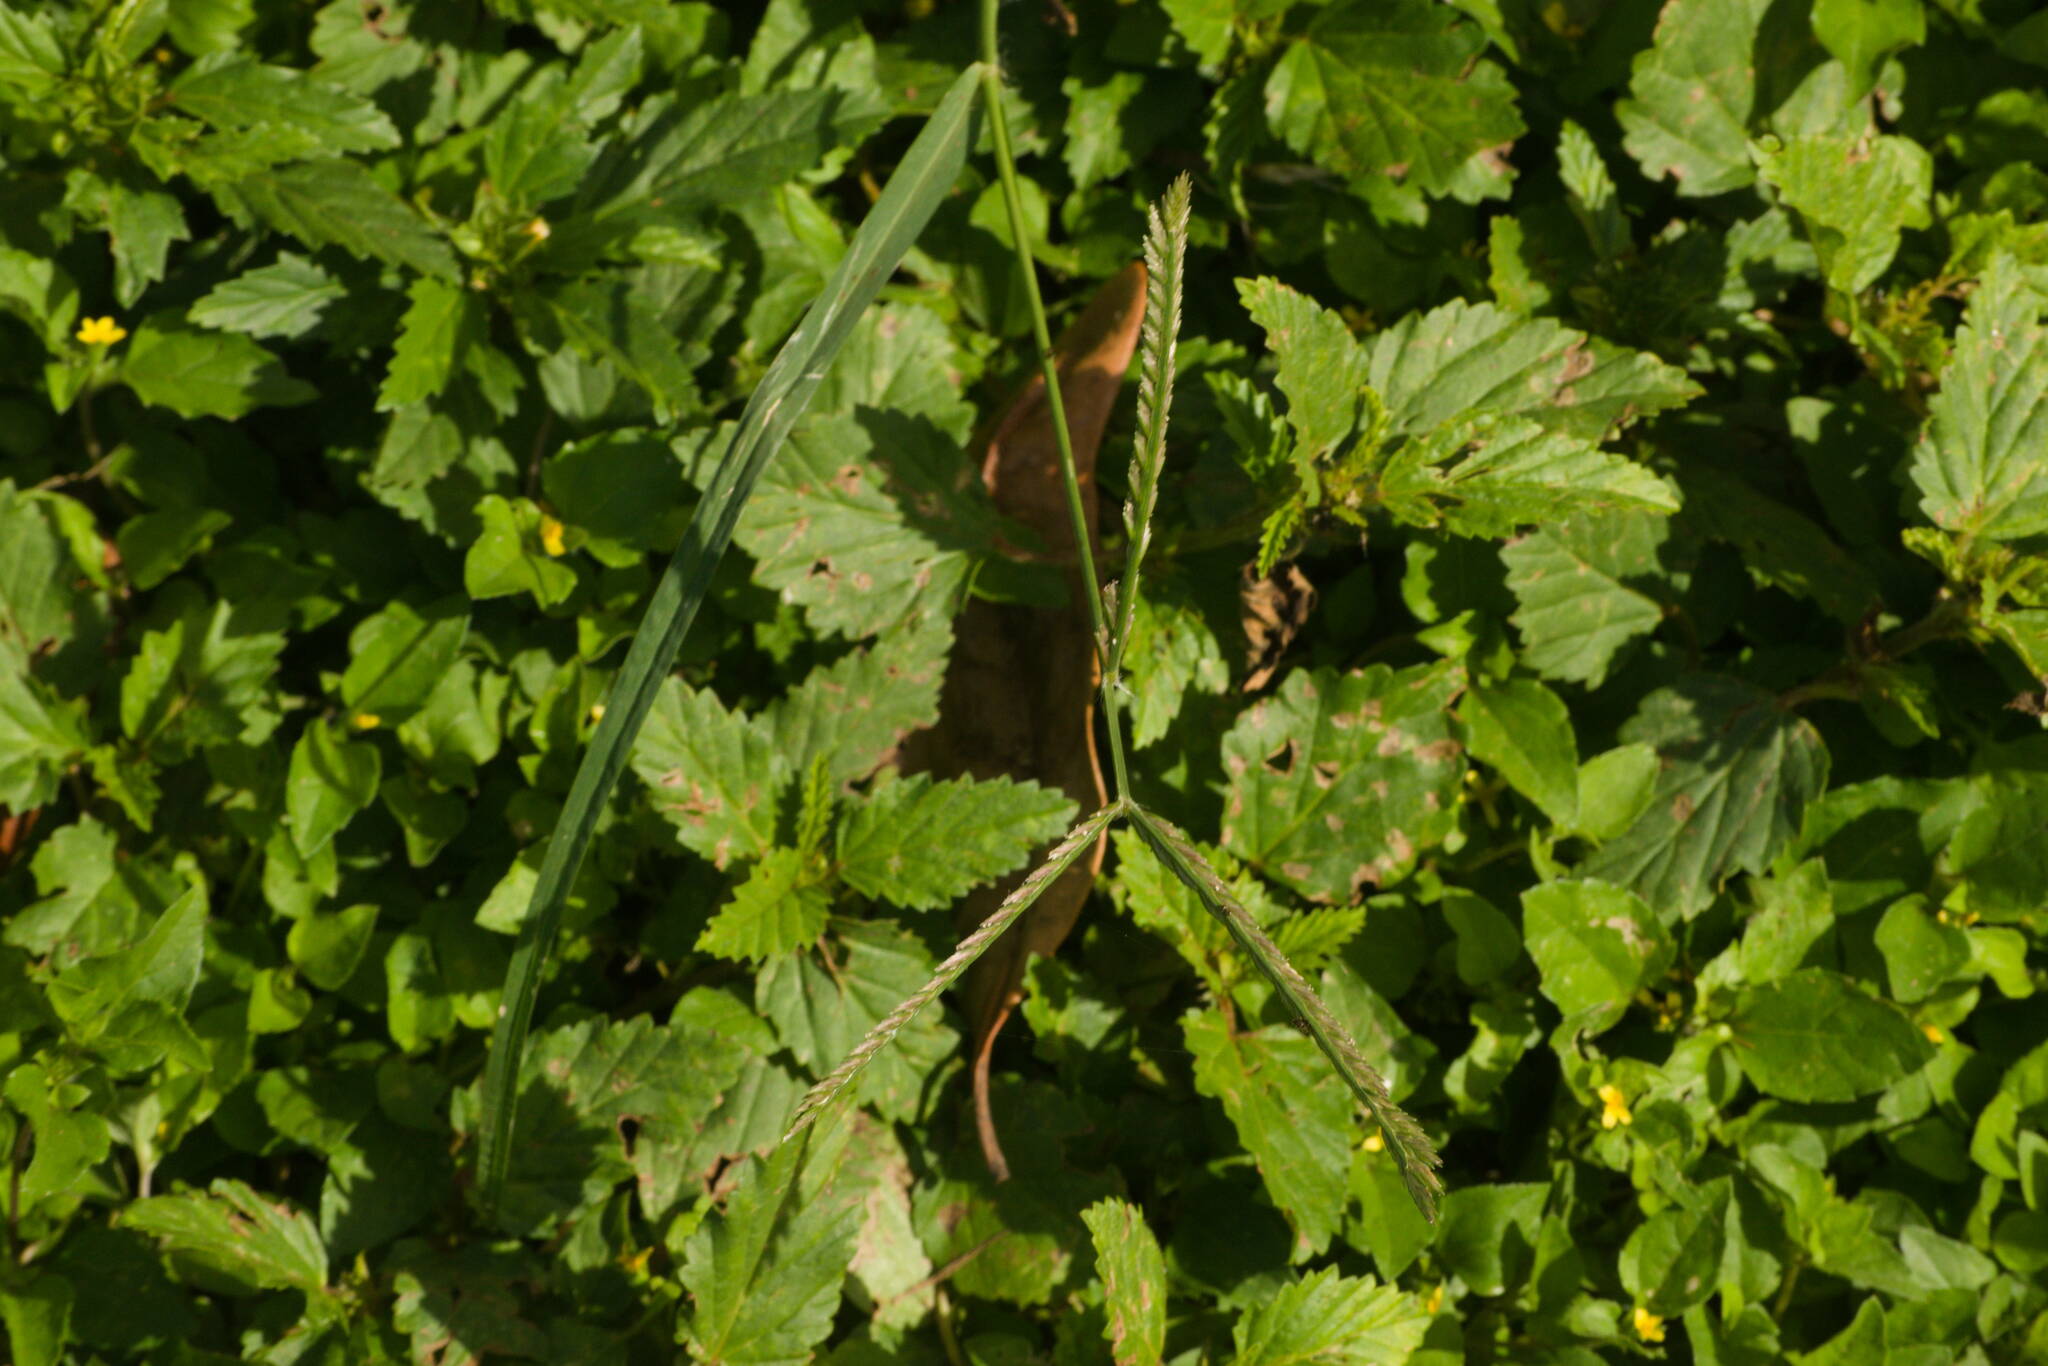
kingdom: Plantae
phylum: Tracheophyta
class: Liliopsida
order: Poales
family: Poaceae
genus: Eleusine
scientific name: Eleusine indica
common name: Yard-grass
